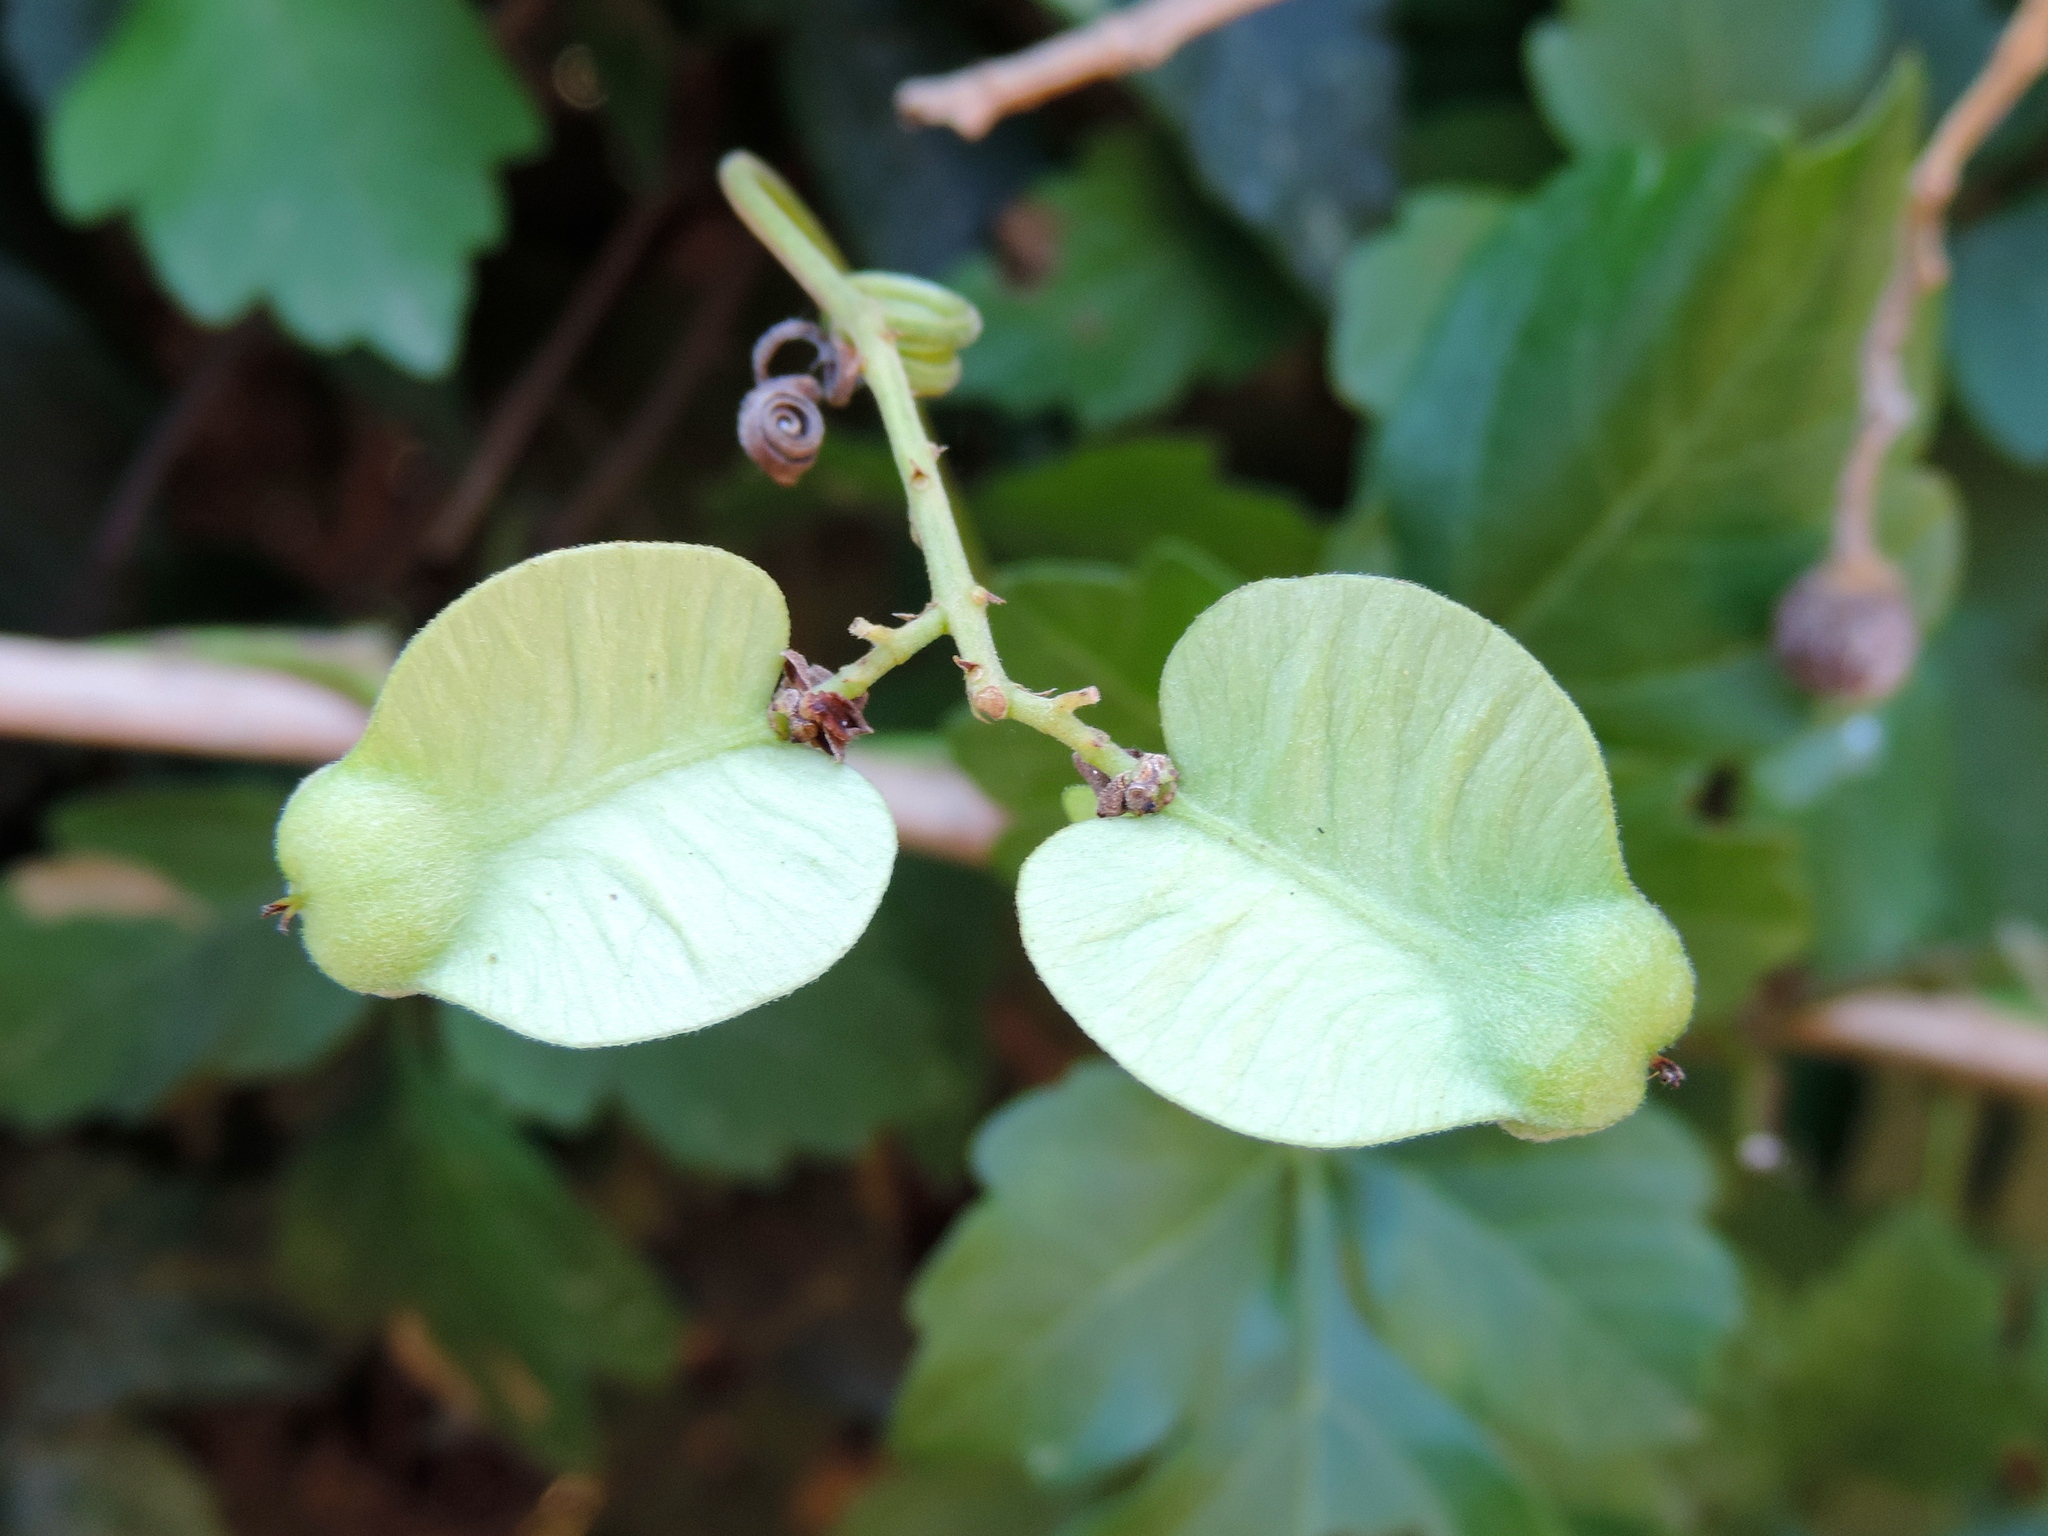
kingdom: Plantae
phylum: Tracheophyta
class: Magnoliopsida
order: Sapindales
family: Sapindaceae
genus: Serjania
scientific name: Serjania
